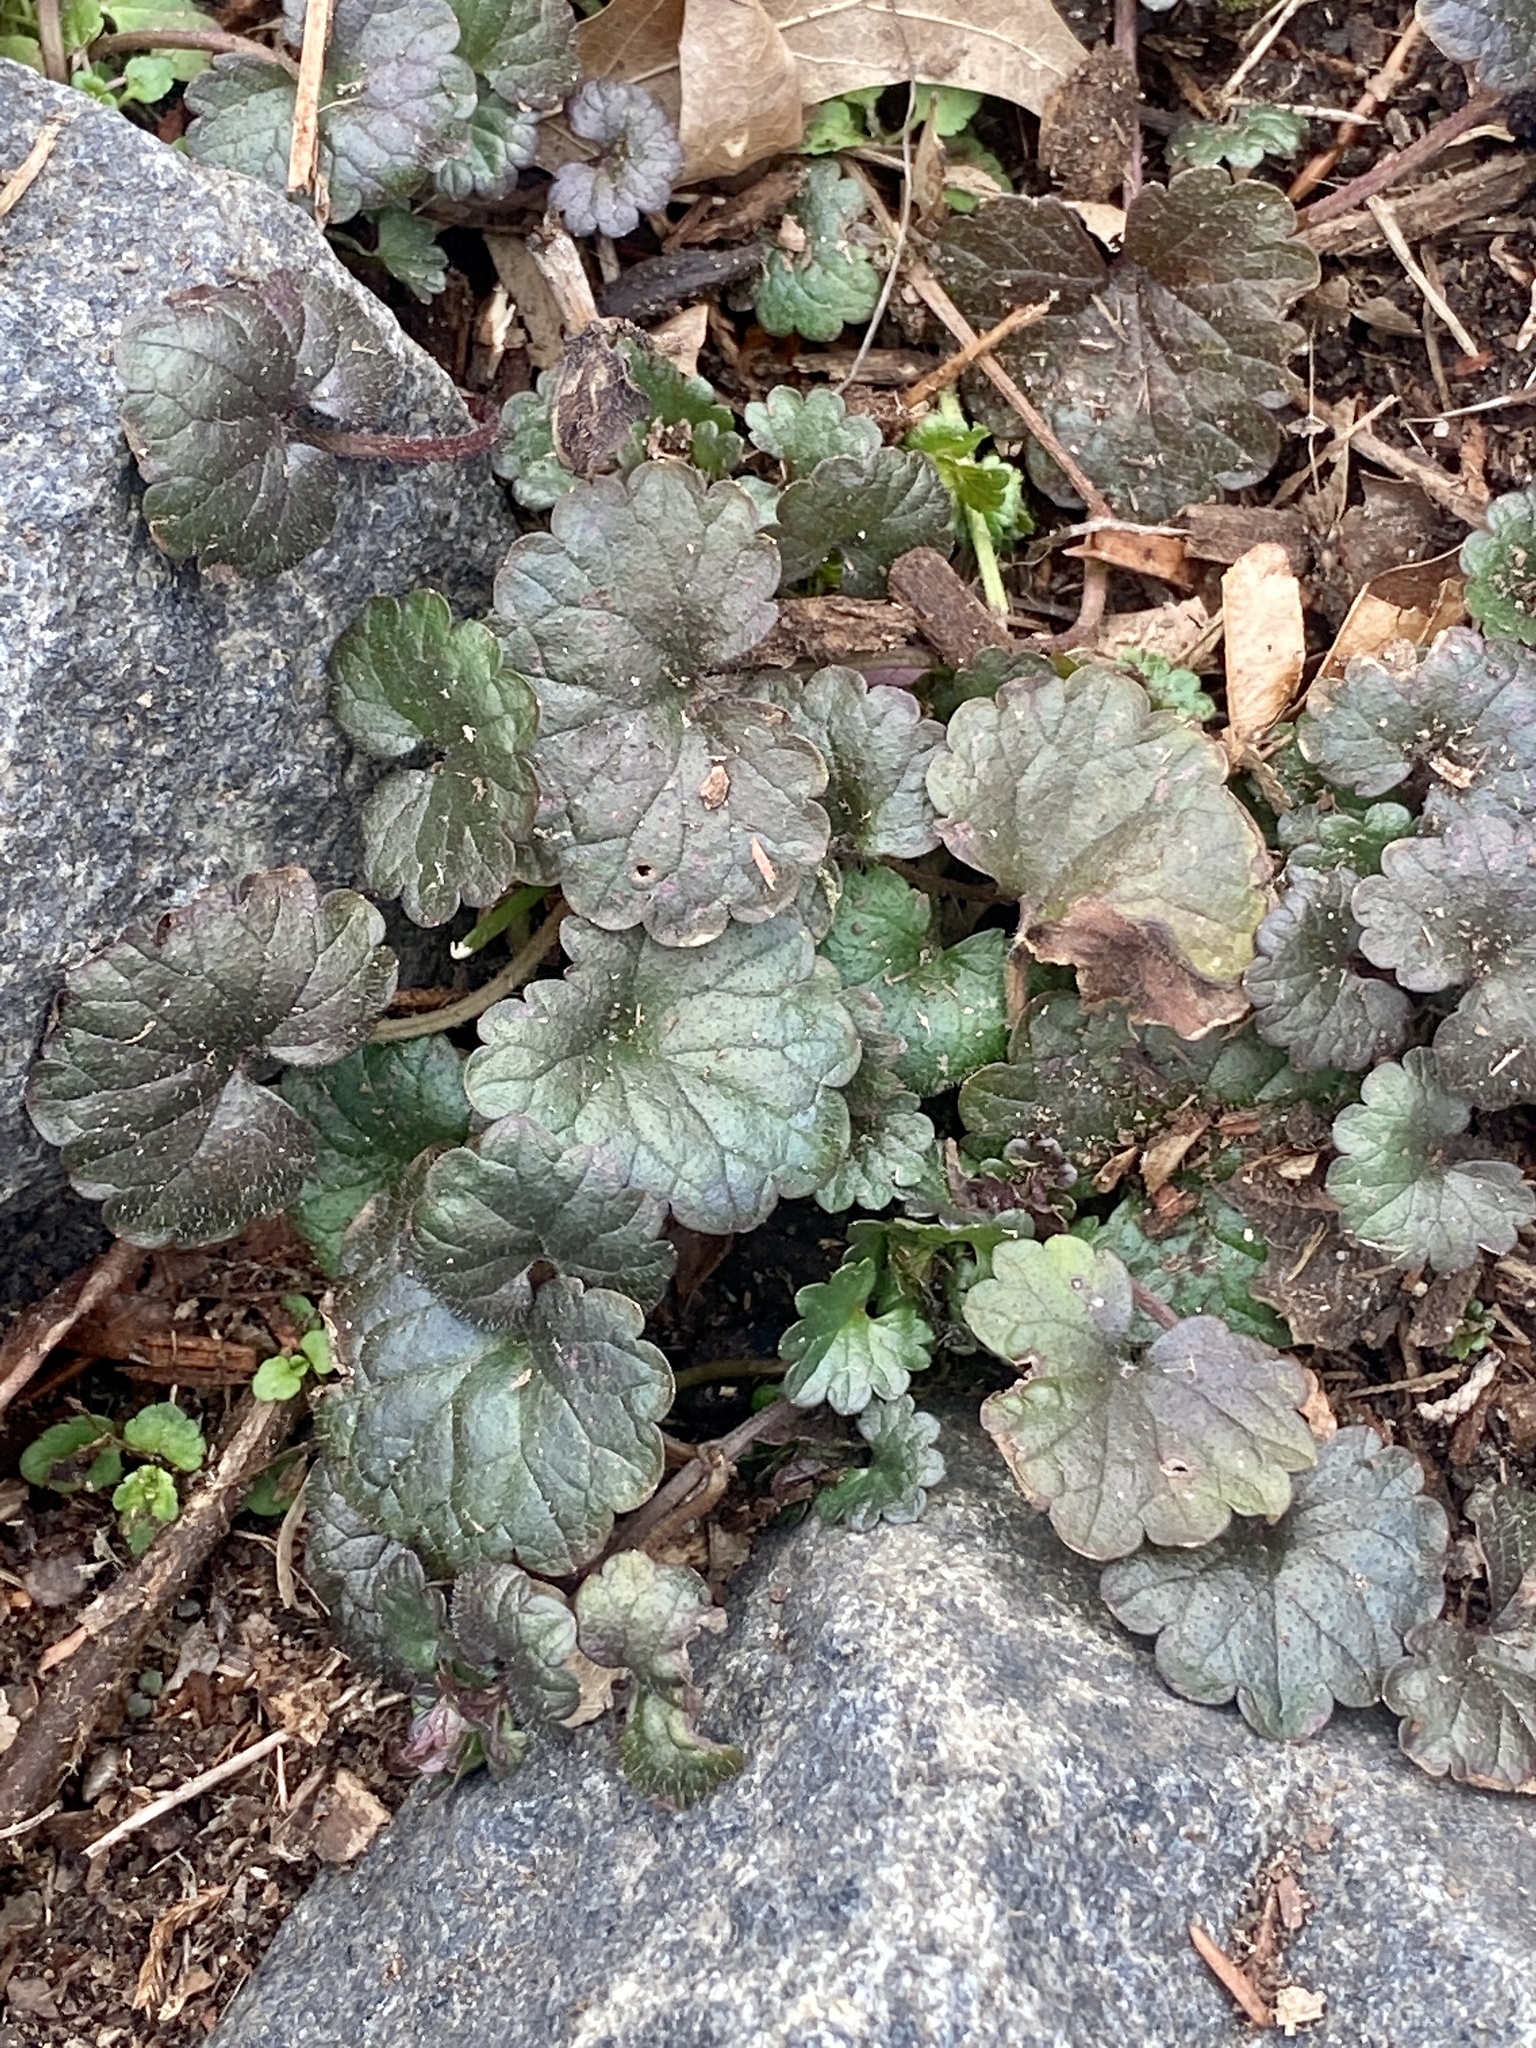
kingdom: Plantae
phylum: Tracheophyta
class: Magnoliopsida
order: Lamiales
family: Lamiaceae
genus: Glechoma
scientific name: Glechoma hederacea
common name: Ground ivy
